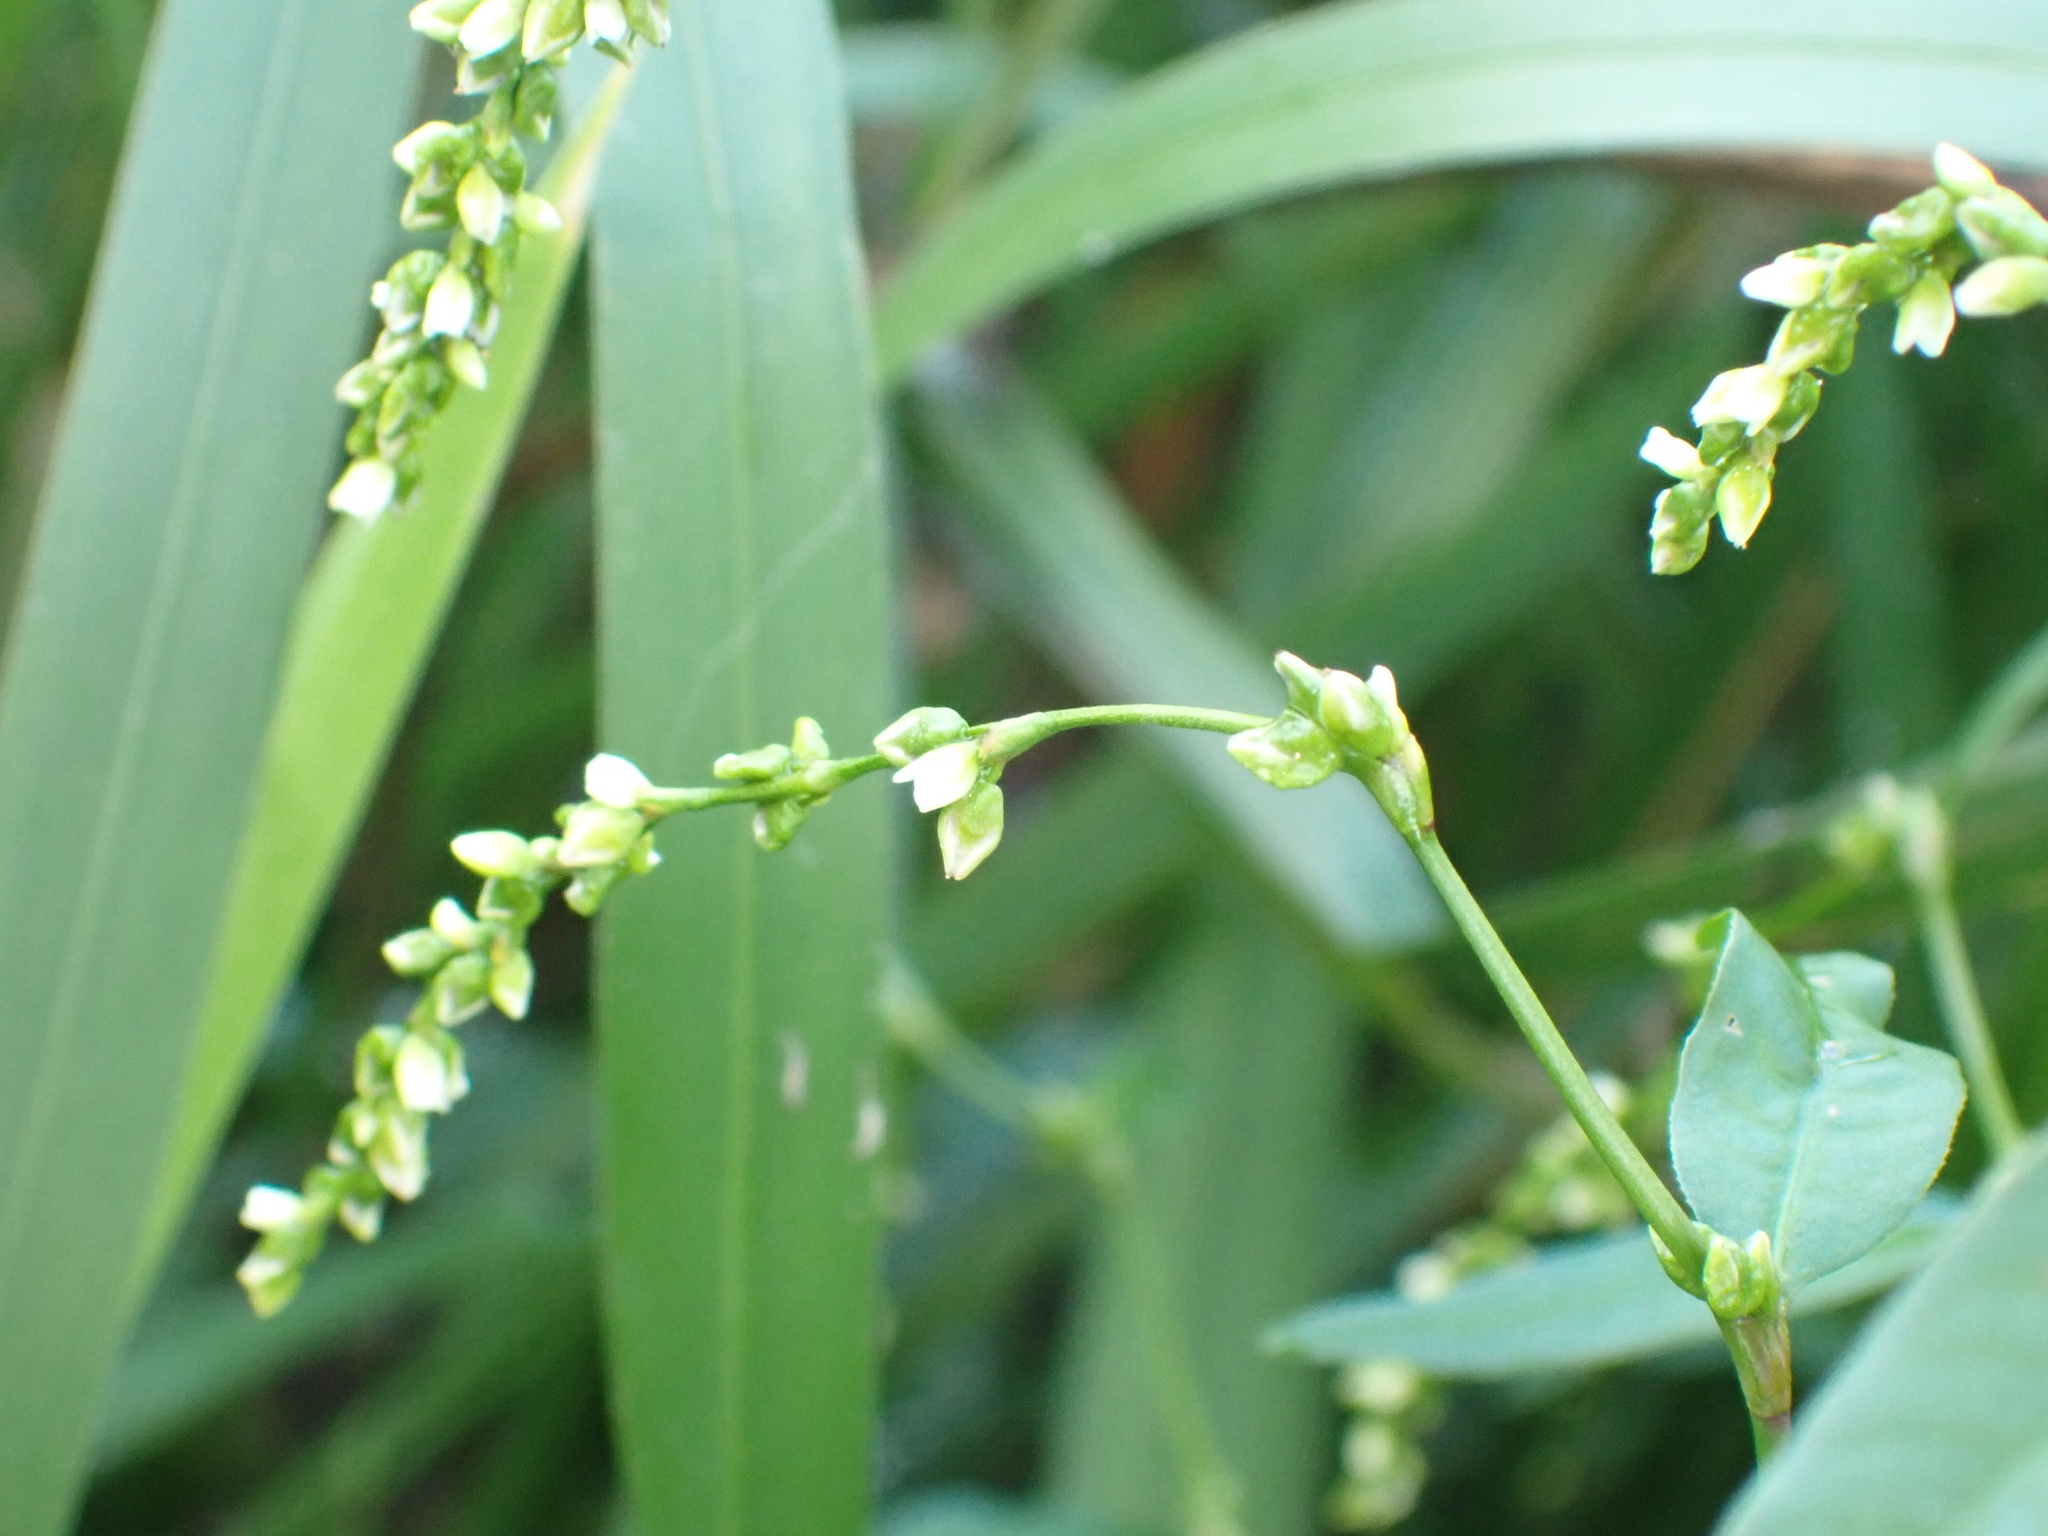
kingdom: Plantae
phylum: Tracheophyta
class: Magnoliopsida
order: Caryophyllales
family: Polygonaceae
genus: Persicaria
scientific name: Persicaria hydropiper
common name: Water-pepper
